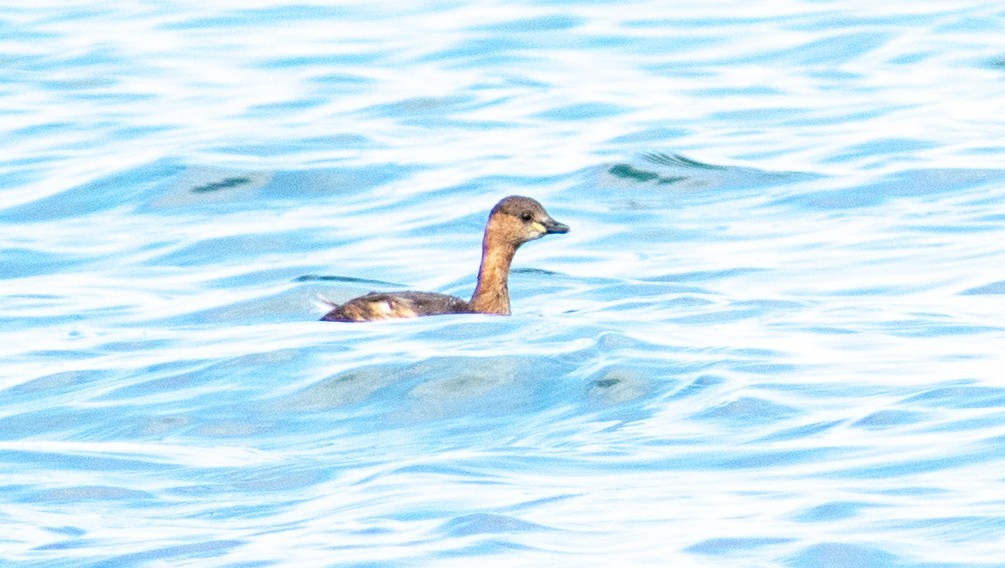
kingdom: Animalia
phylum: Chordata
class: Aves
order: Podicipediformes
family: Podicipedidae
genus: Tachybaptus
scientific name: Tachybaptus ruficollis
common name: Little grebe
